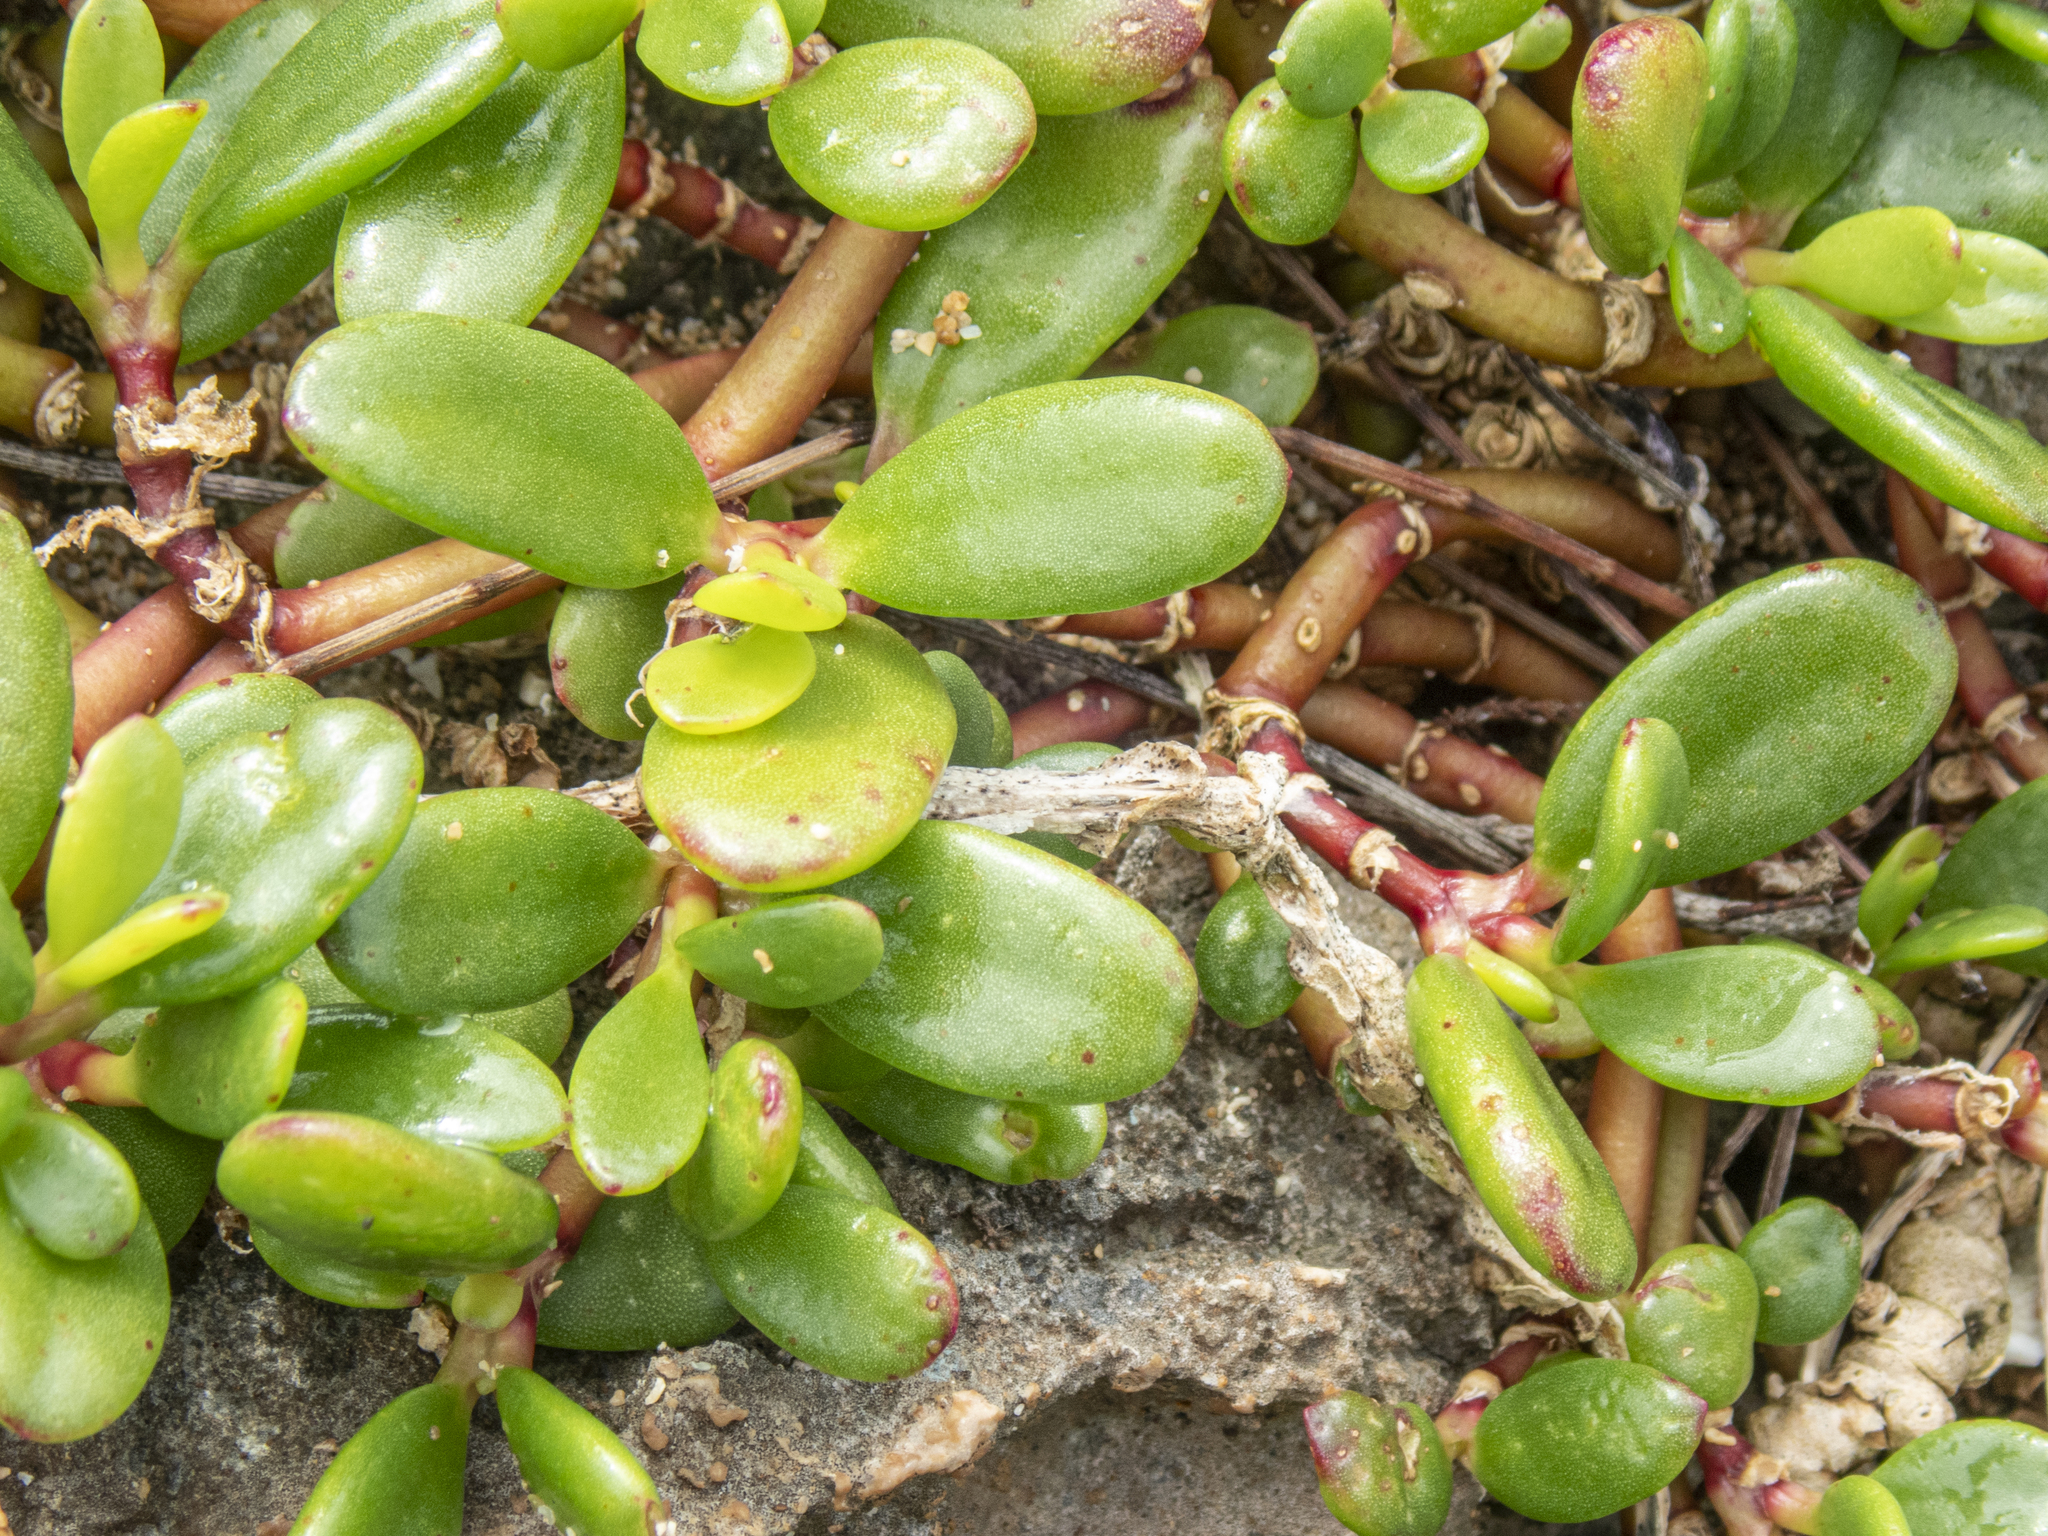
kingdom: Plantae
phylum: Tracheophyta
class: Magnoliopsida
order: Caryophyllales
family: Aizoaceae
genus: Sesuvium
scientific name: Sesuvium portulacastrum
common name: Sea-purslane
